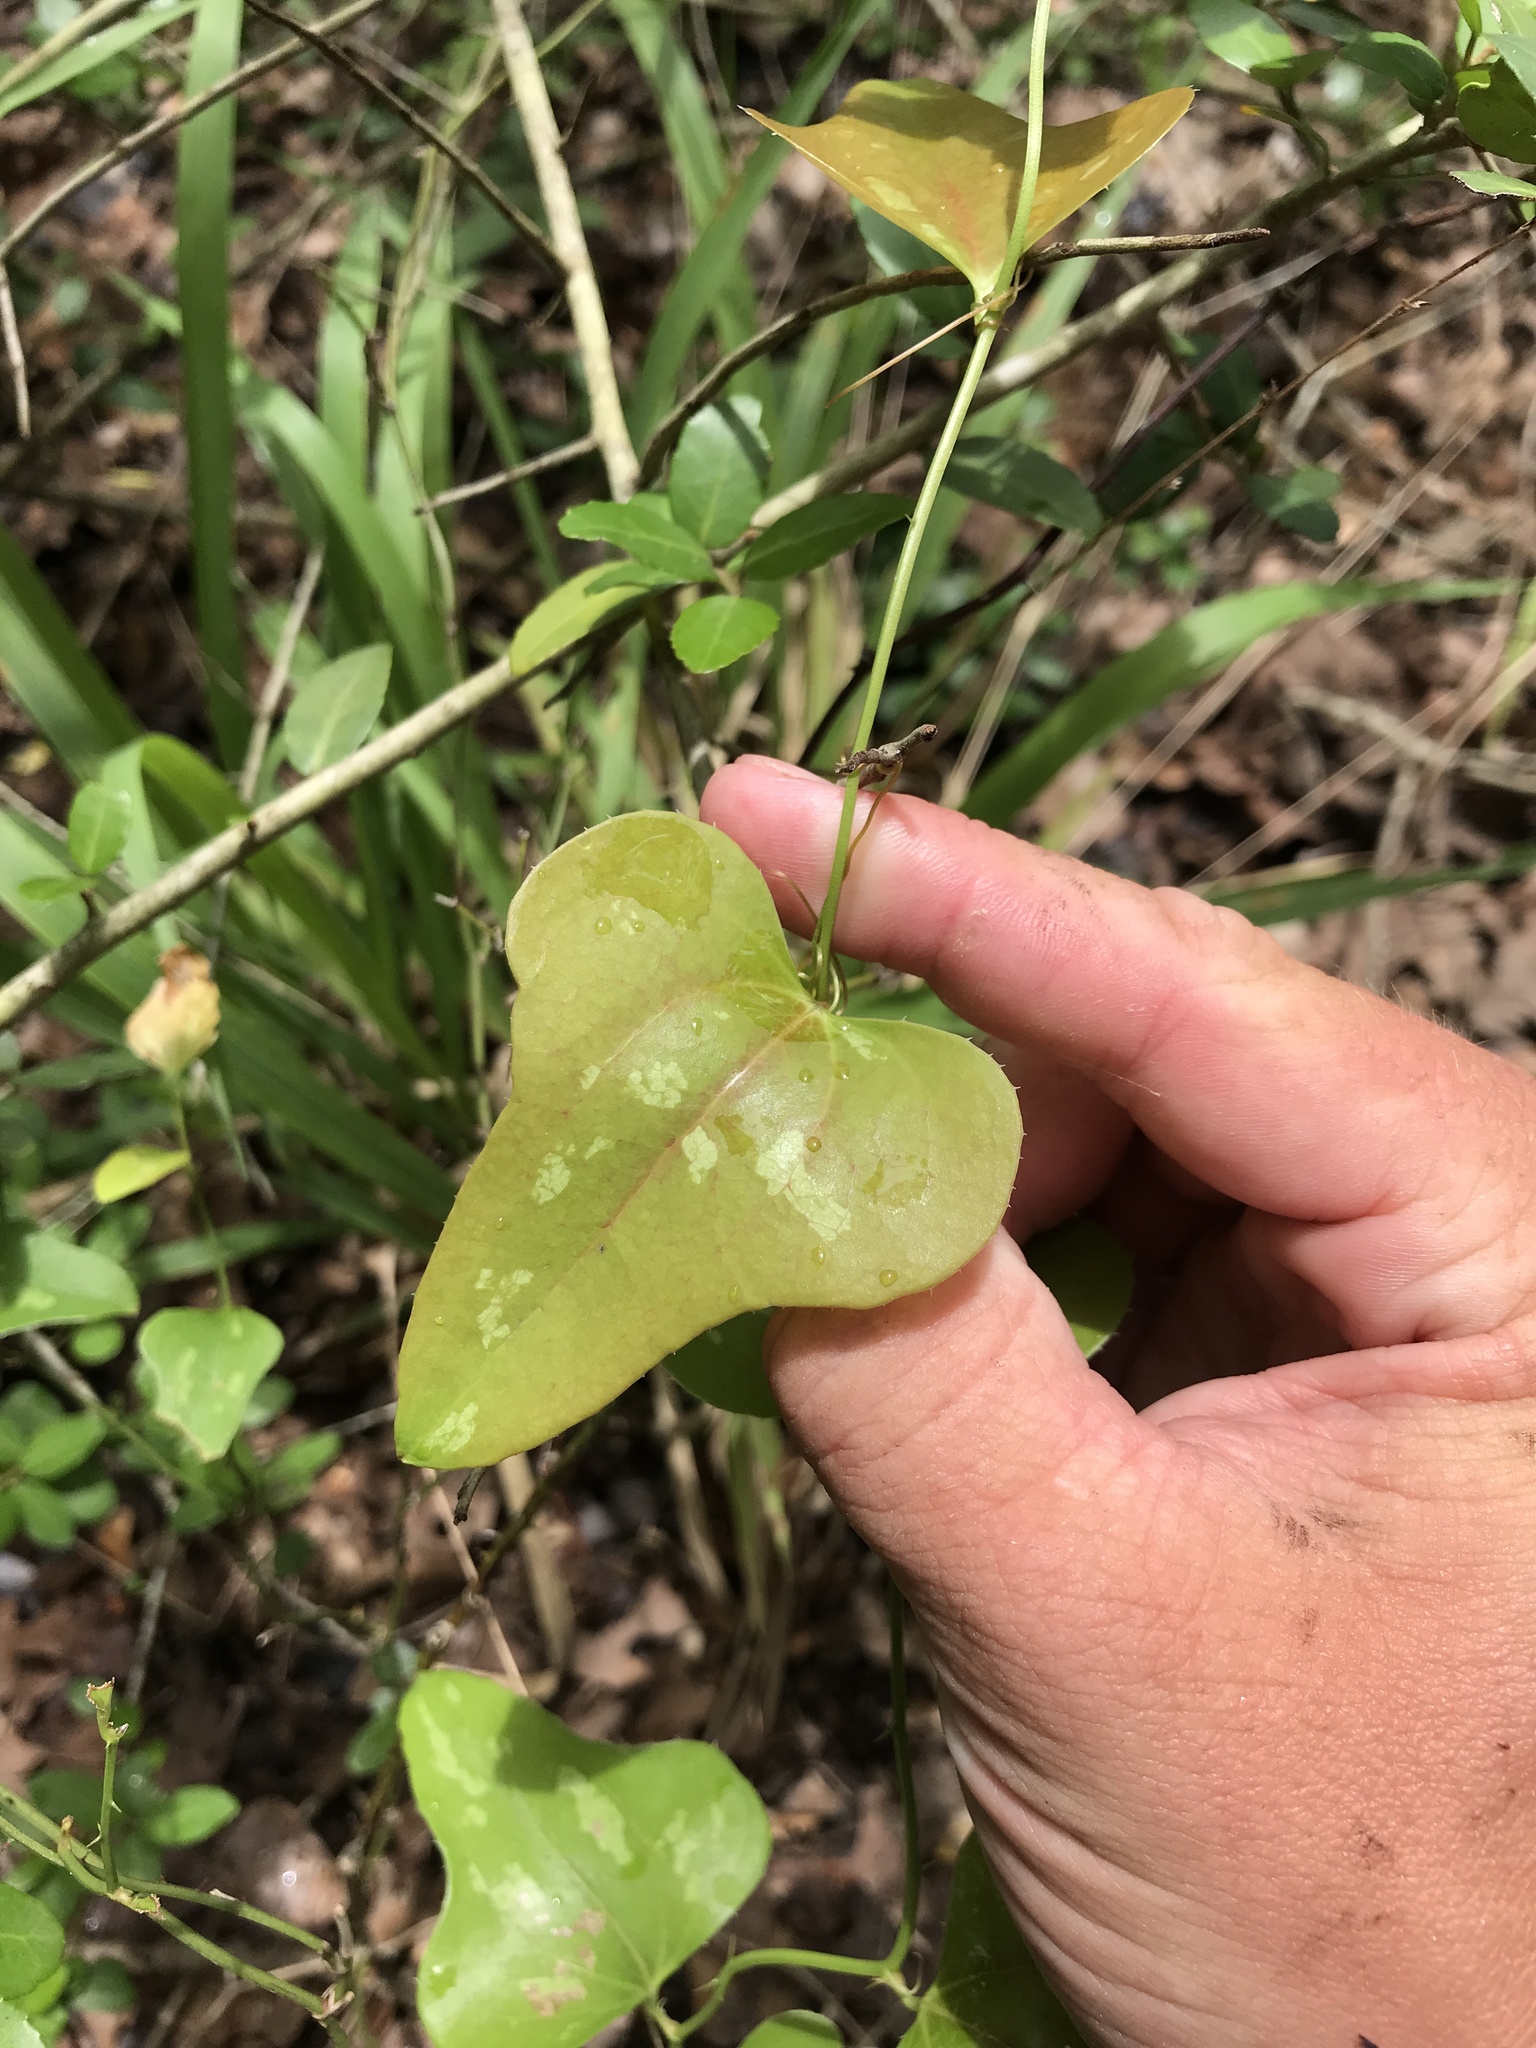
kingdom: Plantae
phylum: Tracheophyta
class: Liliopsida
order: Liliales
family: Smilacaceae
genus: Smilax
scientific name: Smilax bona-nox
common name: Catbrier
